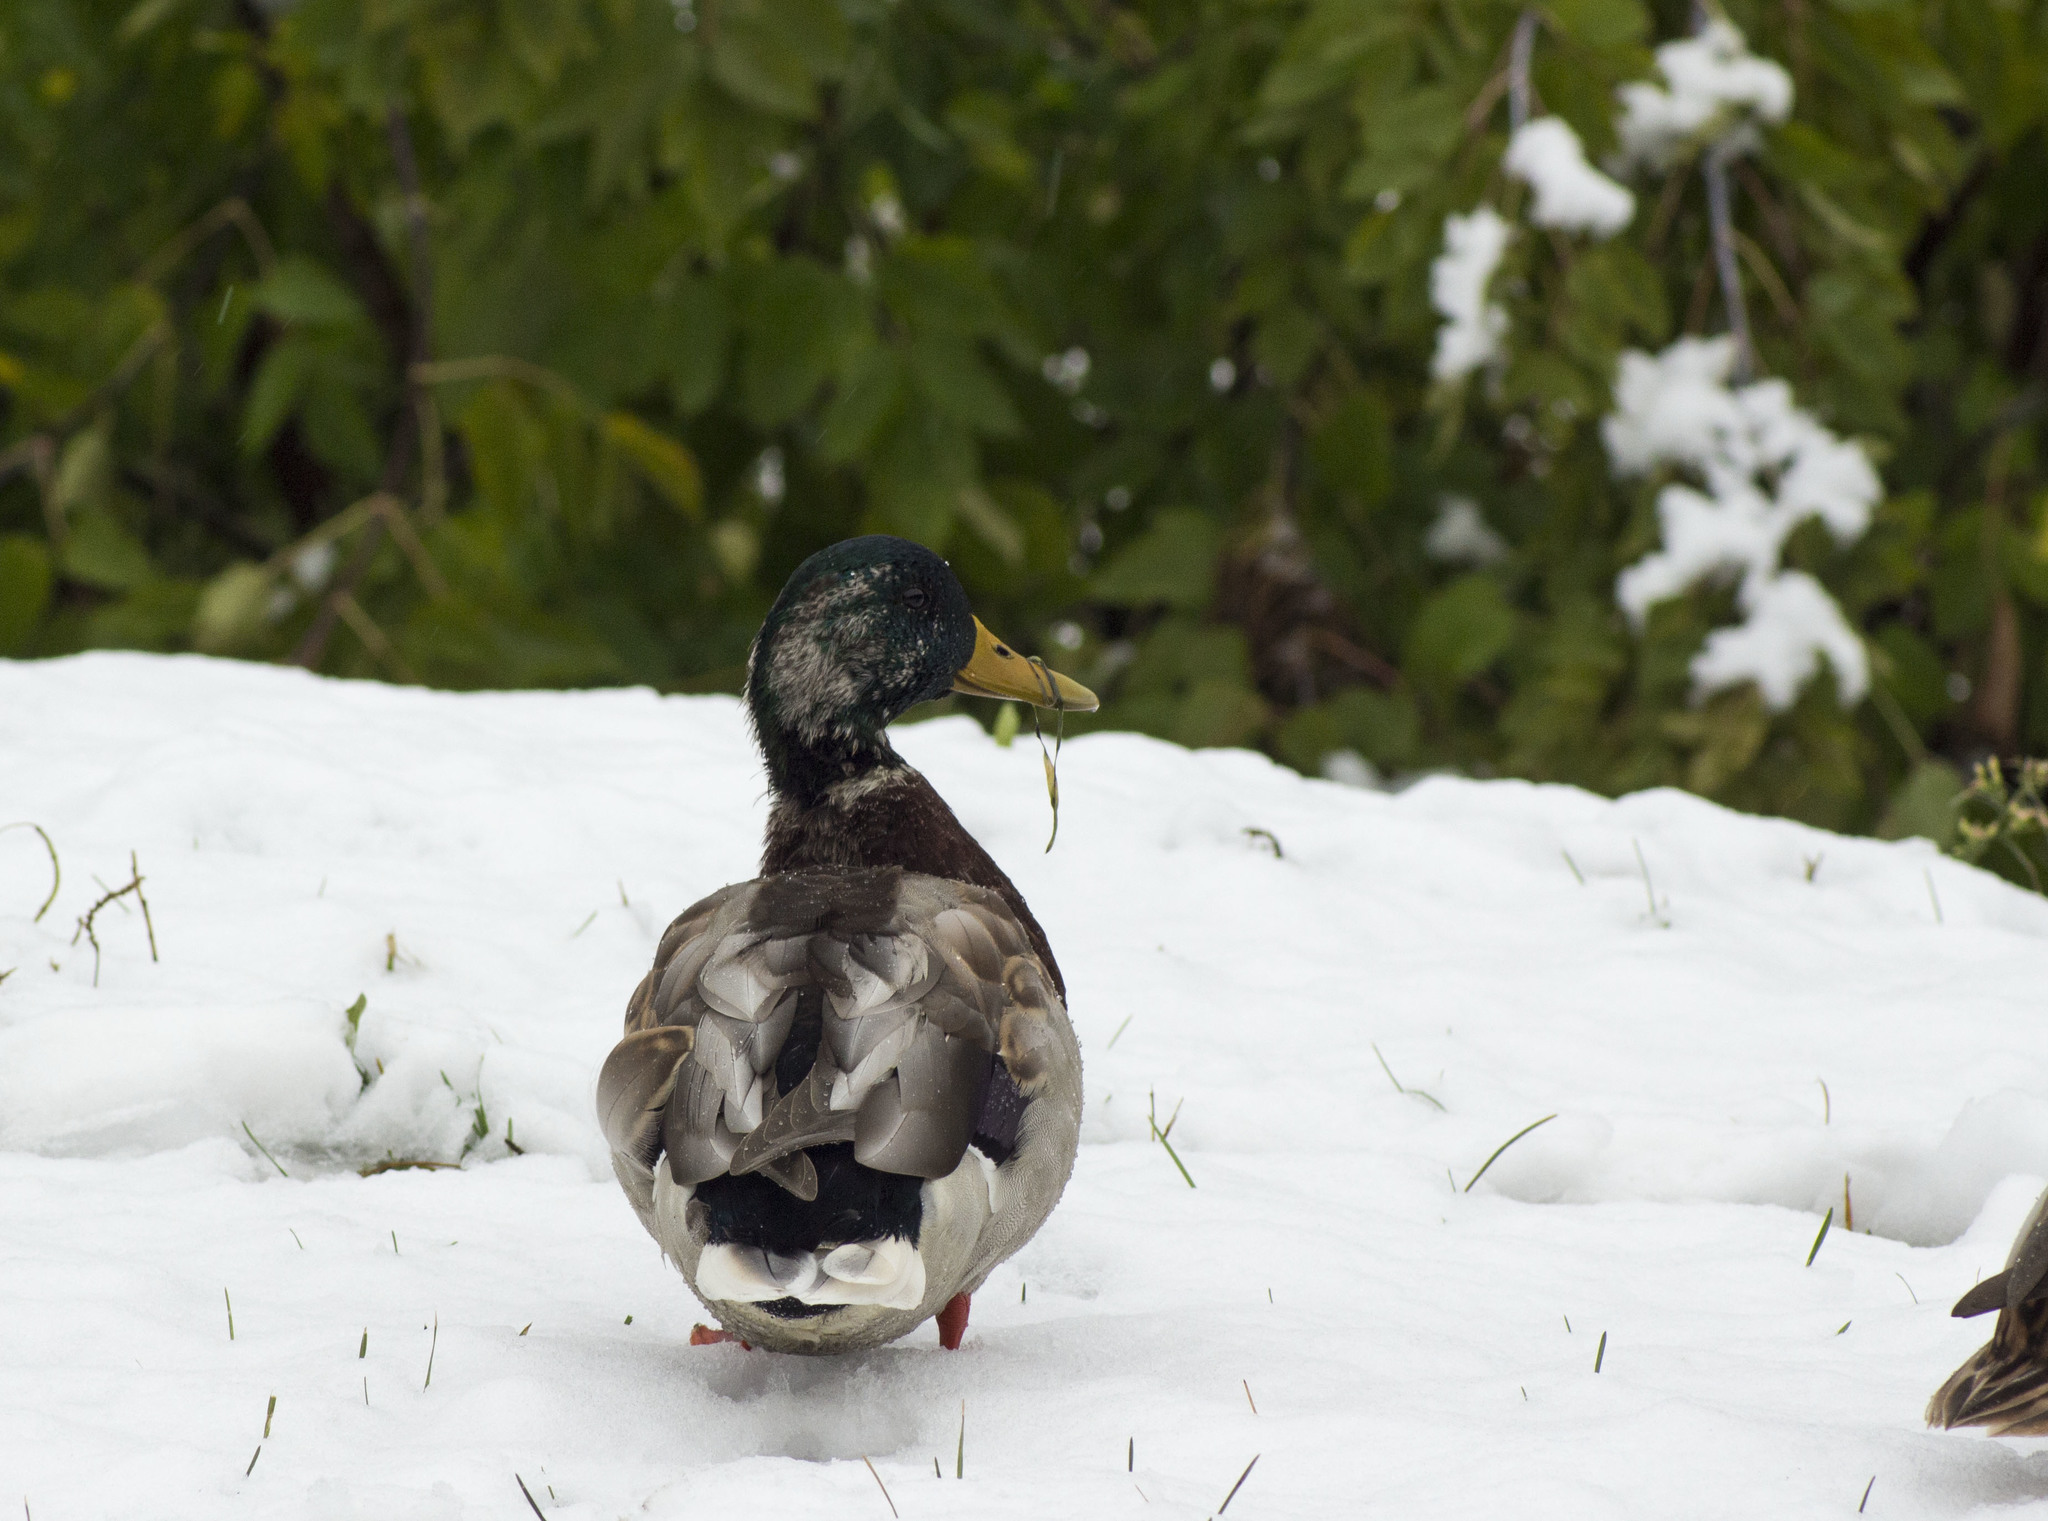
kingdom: Animalia
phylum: Chordata
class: Aves
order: Anseriformes
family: Anatidae
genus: Anas
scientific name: Anas platyrhynchos
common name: Mallard
